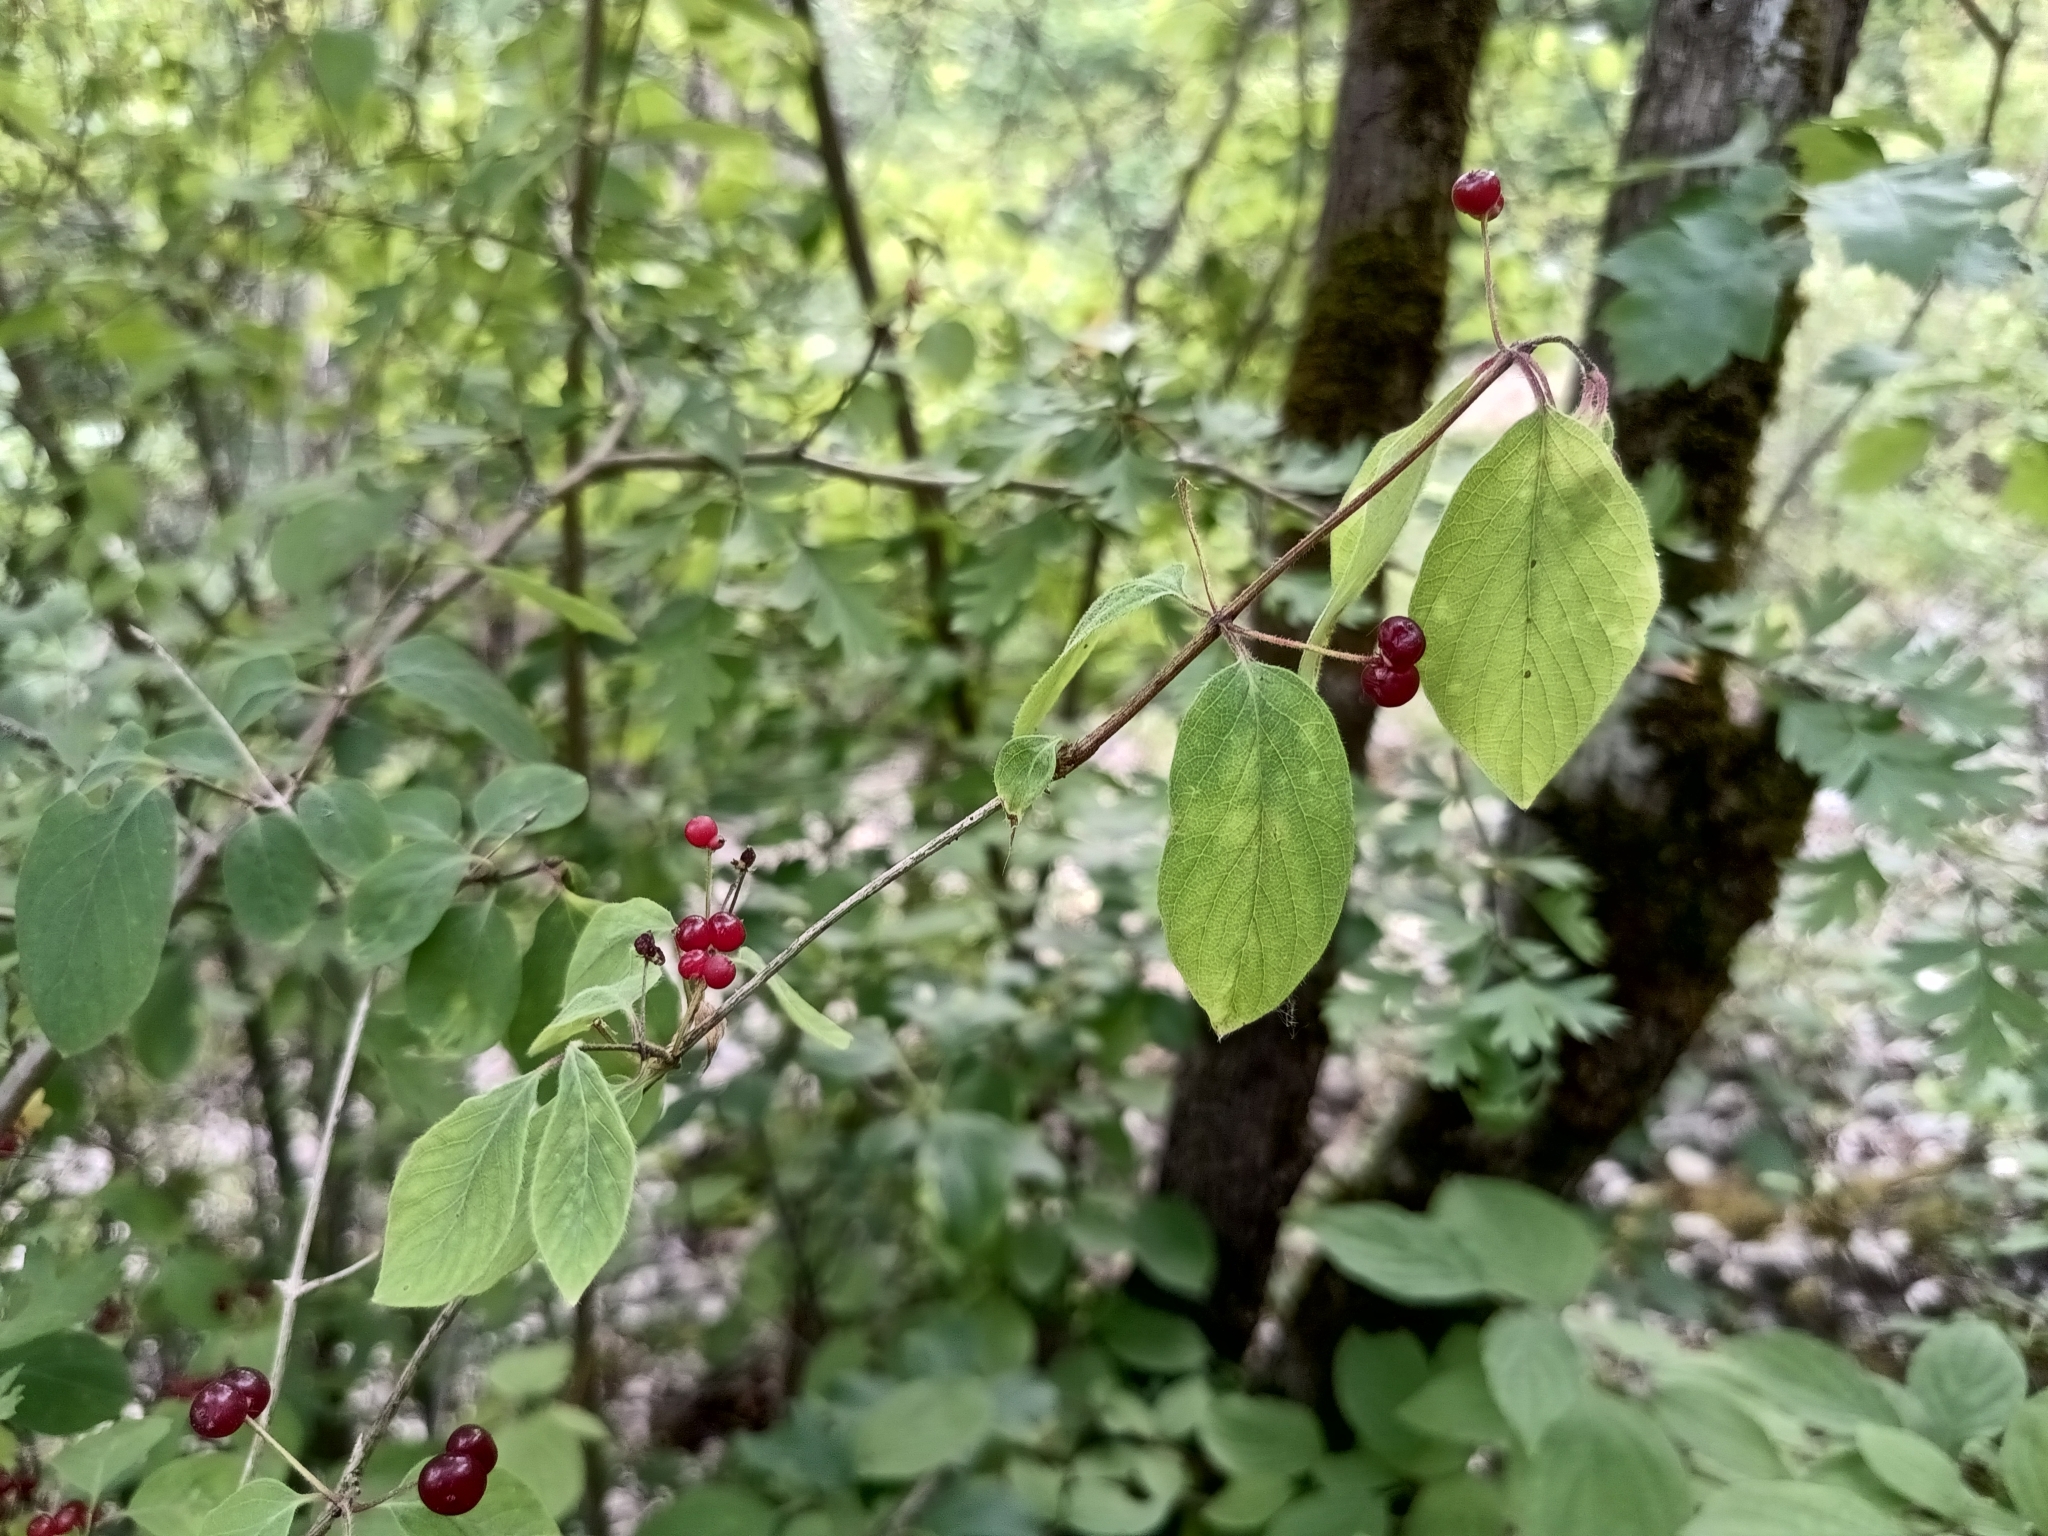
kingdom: Plantae
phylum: Tracheophyta
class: Magnoliopsida
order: Dipsacales
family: Caprifoliaceae
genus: Lonicera
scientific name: Lonicera xylosteum
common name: Fly honeysuckle
